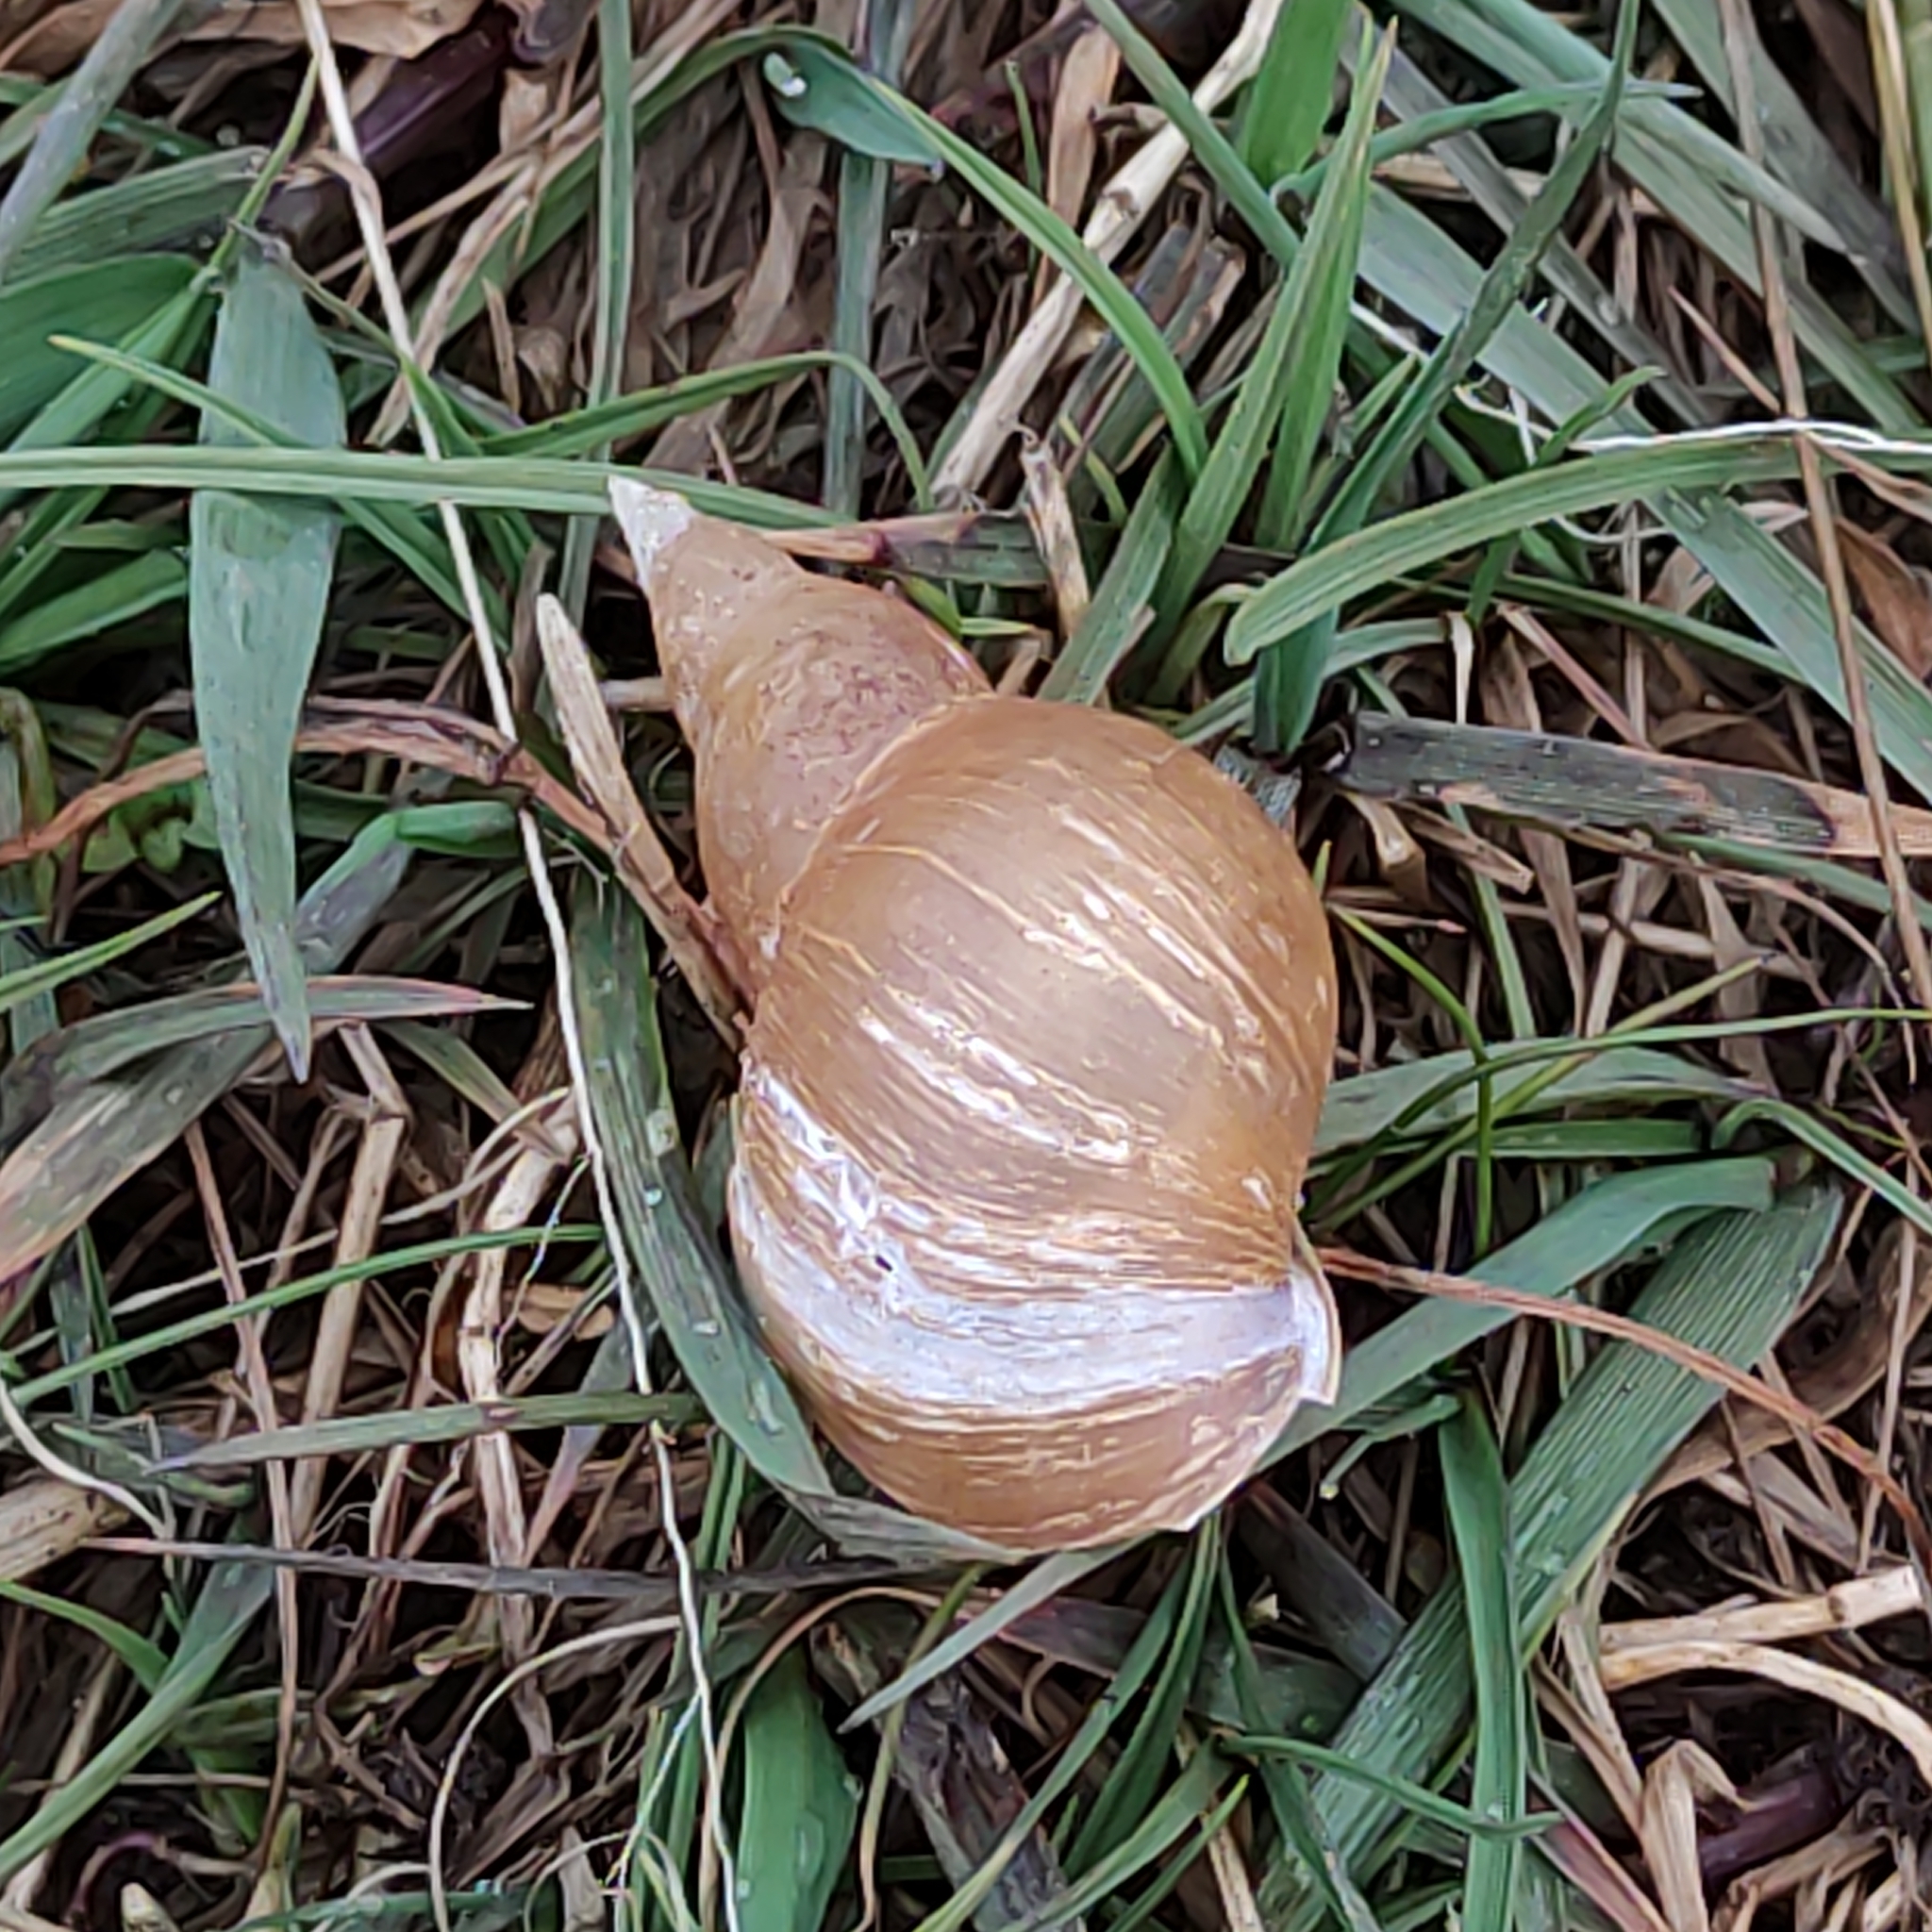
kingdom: Animalia
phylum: Mollusca
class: Gastropoda
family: Lymnaeidae
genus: Lymnaea
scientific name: Lymnaea stagnalis
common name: Great pond snail
